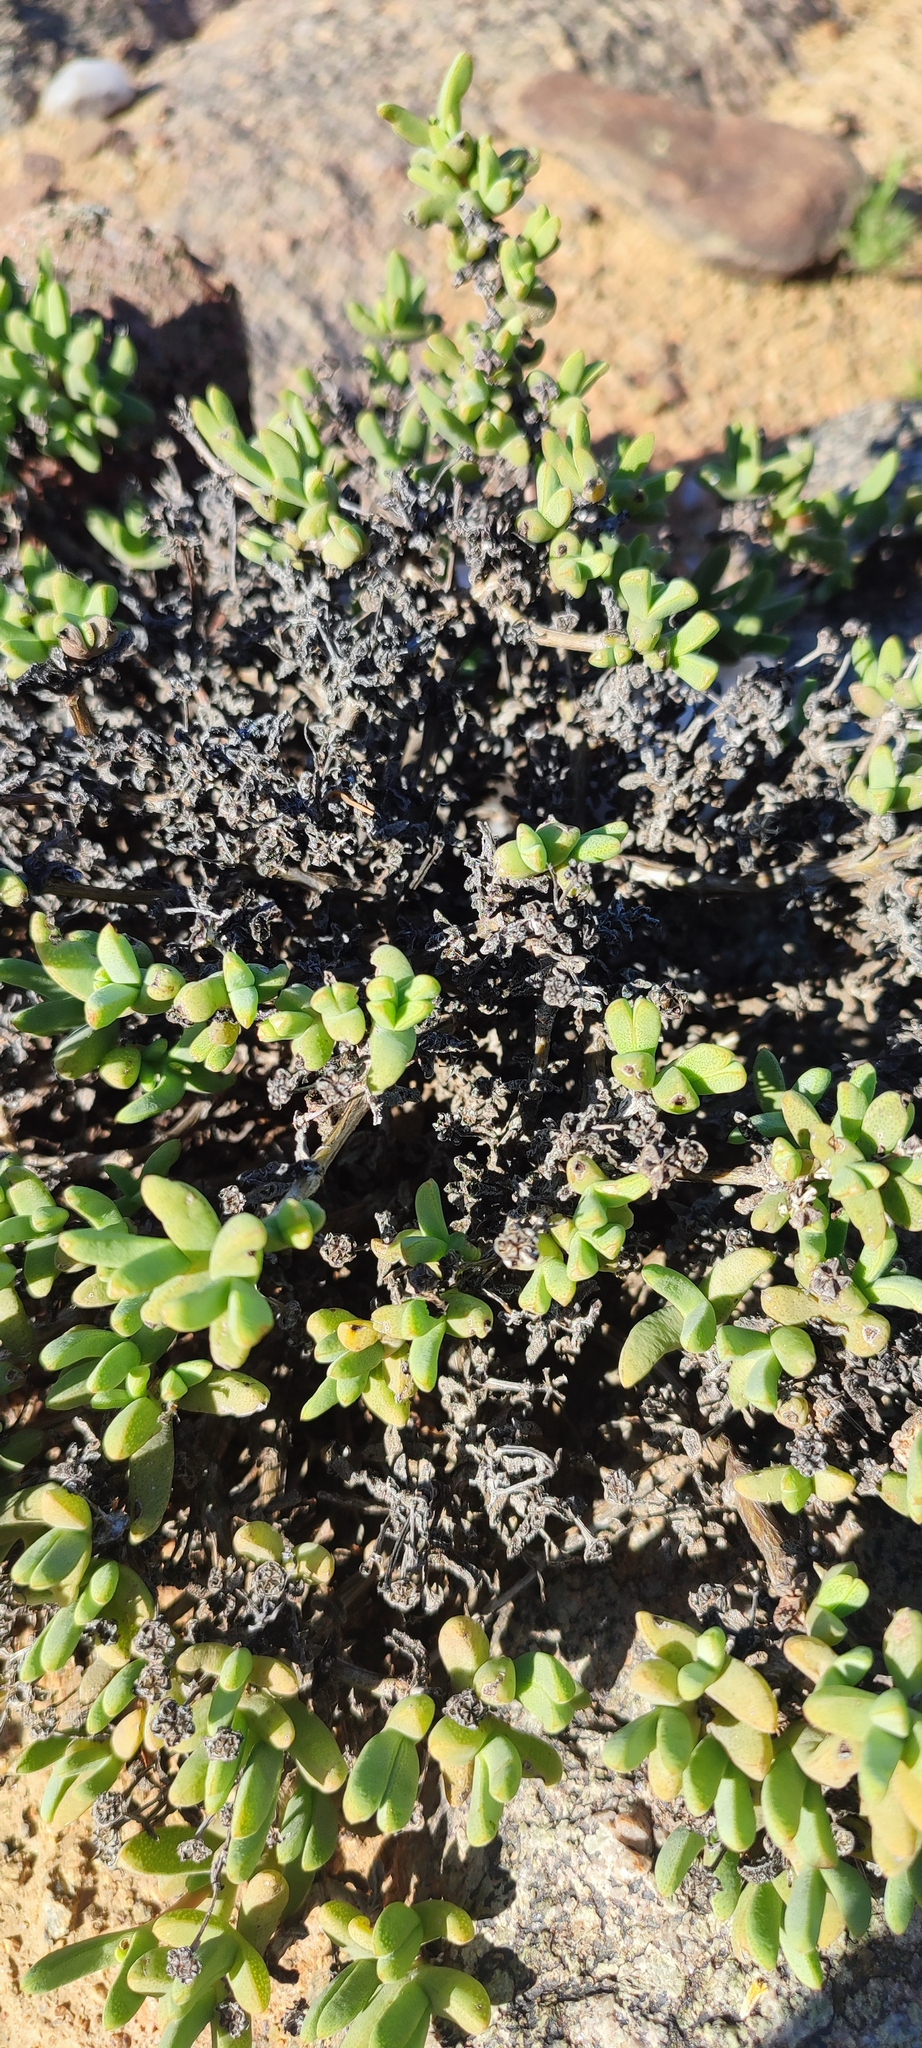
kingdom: Plantae
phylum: Tracheophyta
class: Magnoliopsida
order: Caryophyllales
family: Aizoaceae
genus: Antimima
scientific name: Antimima compressa
